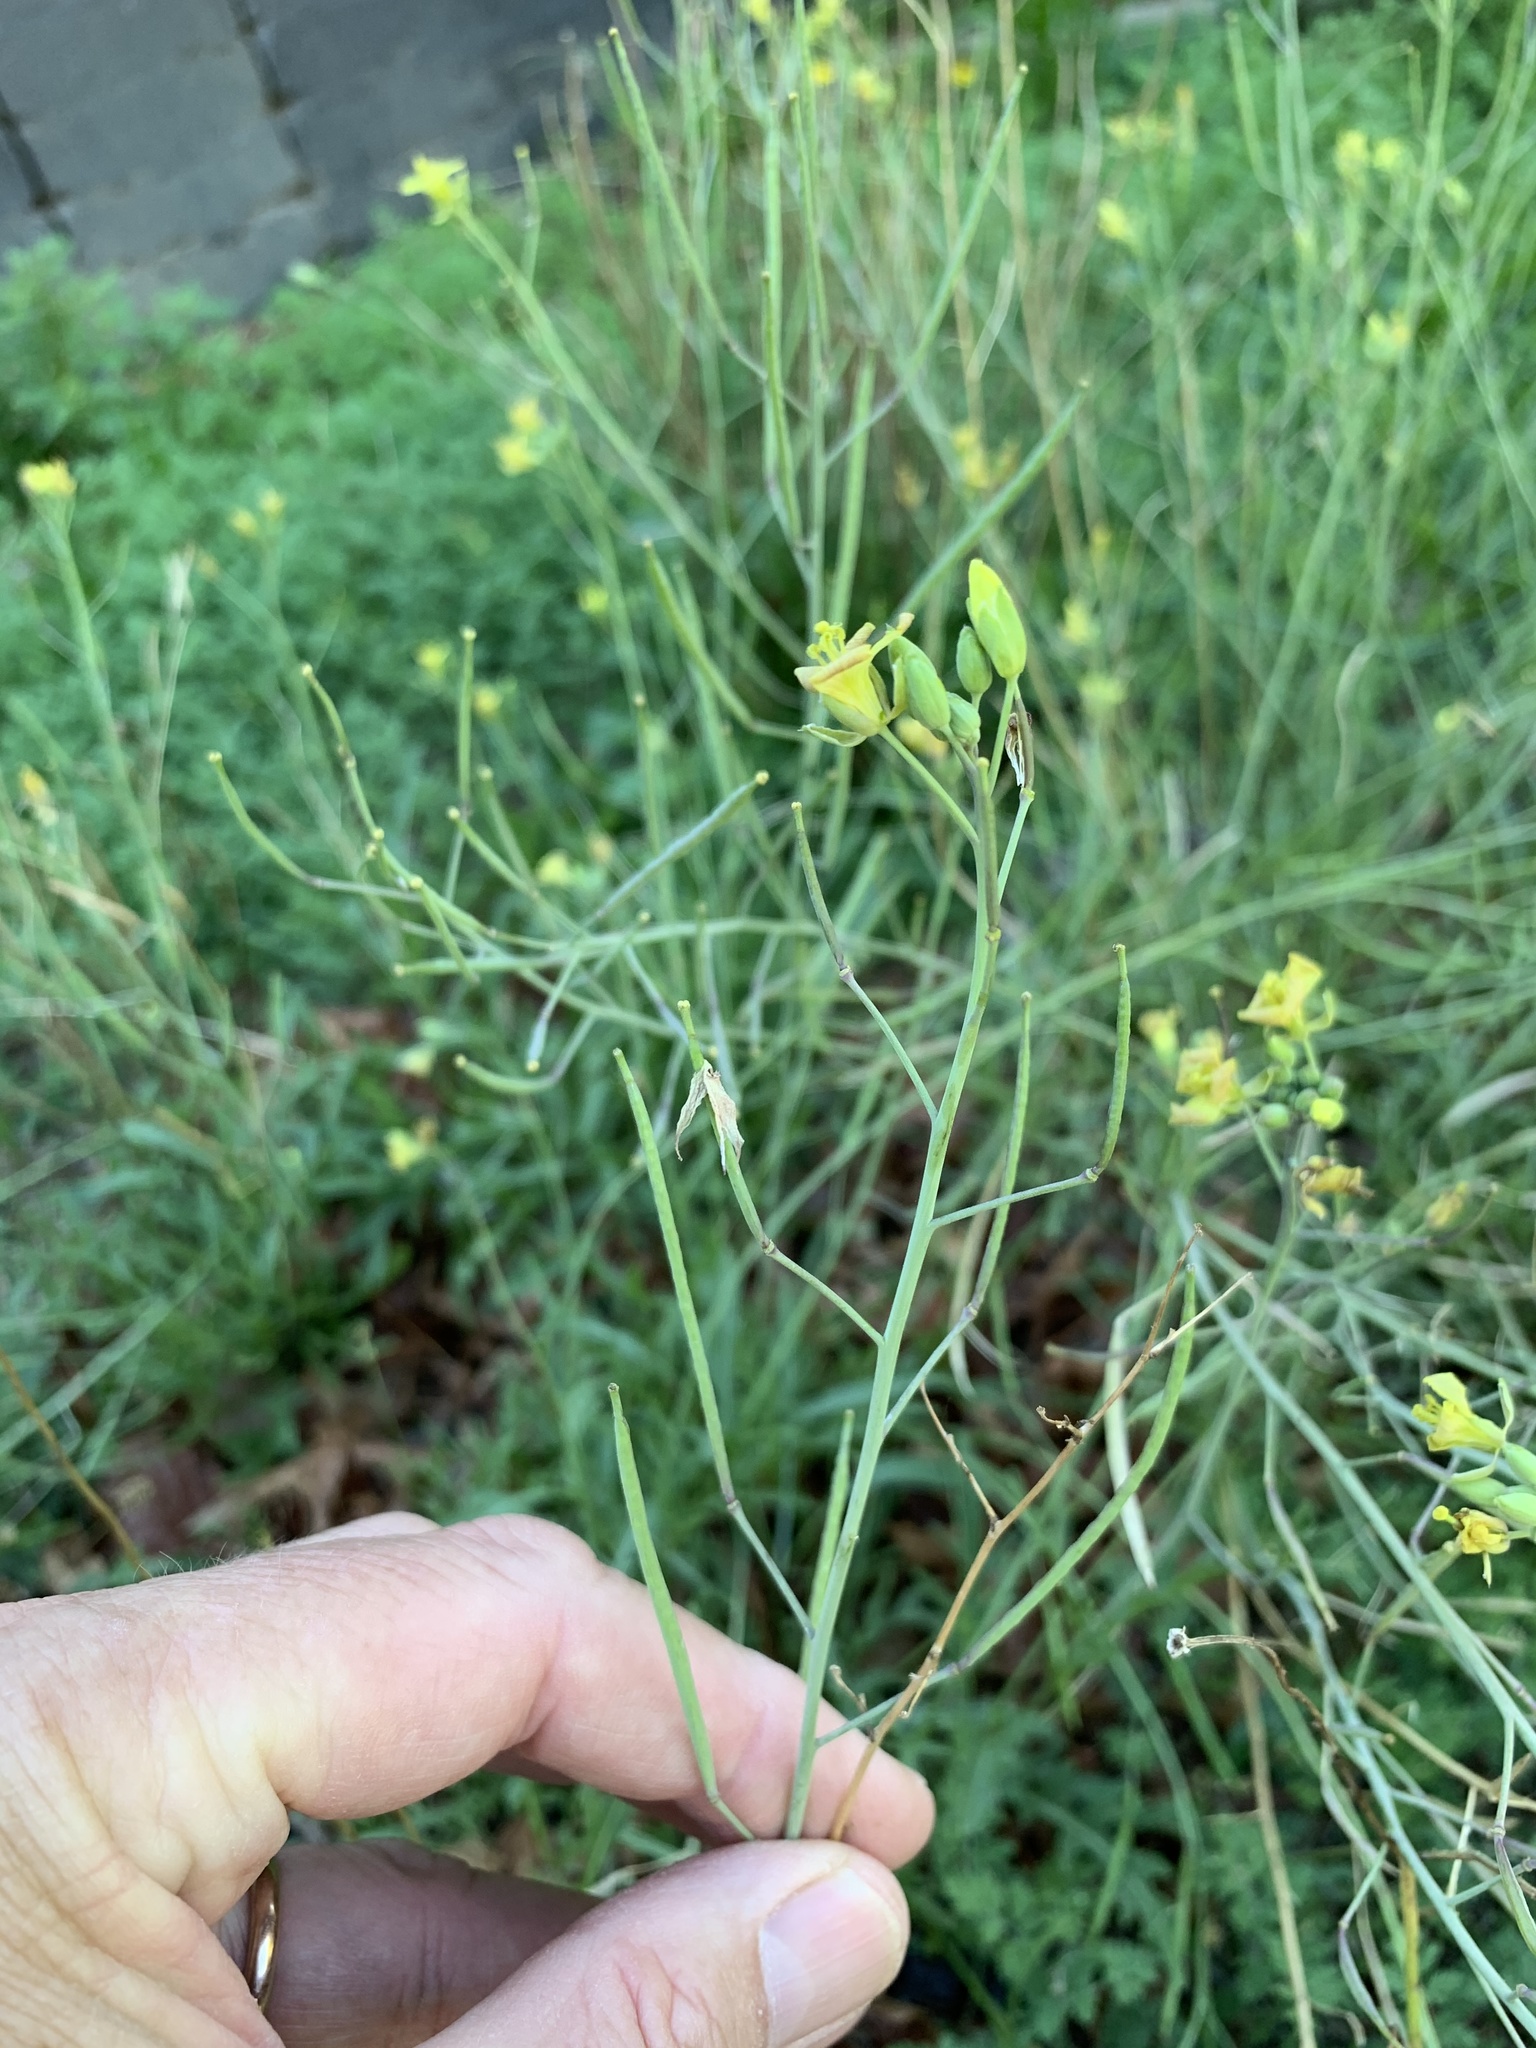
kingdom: Plantae
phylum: Tracheophyta
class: Magnoliopsida
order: Brassicales
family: Brassicaceae
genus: Diplotaxis
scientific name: Diplotaxis tenuifolia
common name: Perennial wall-rocket
